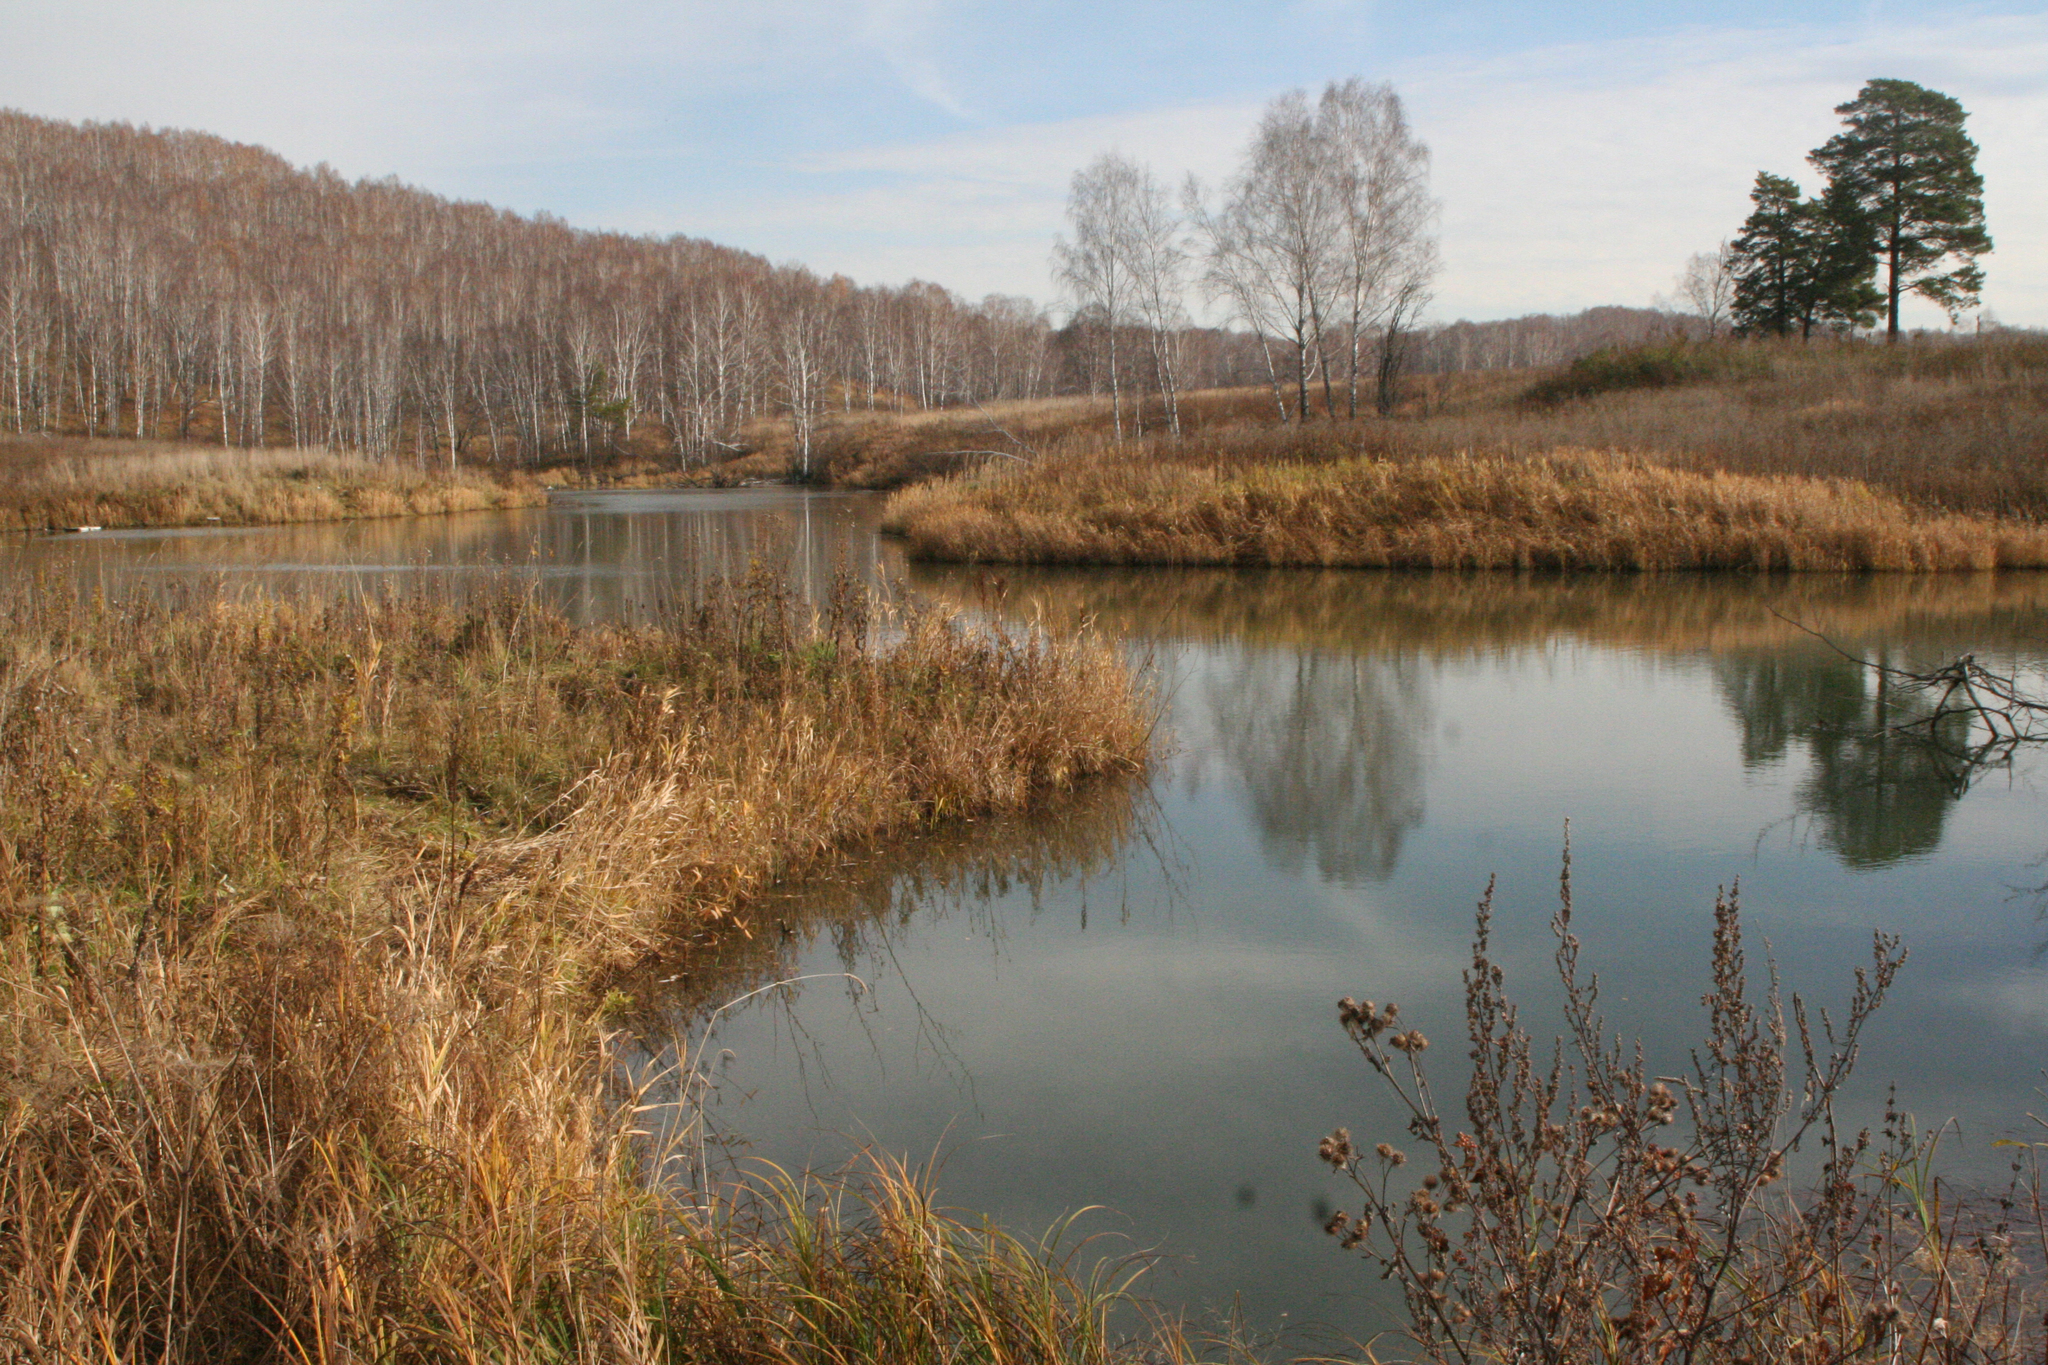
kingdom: Plantae
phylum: Tracheophyta
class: Pinopsida
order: Pinales
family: Pinaceae
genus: Pinus
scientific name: Pinus sylvestris
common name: Scots pine
